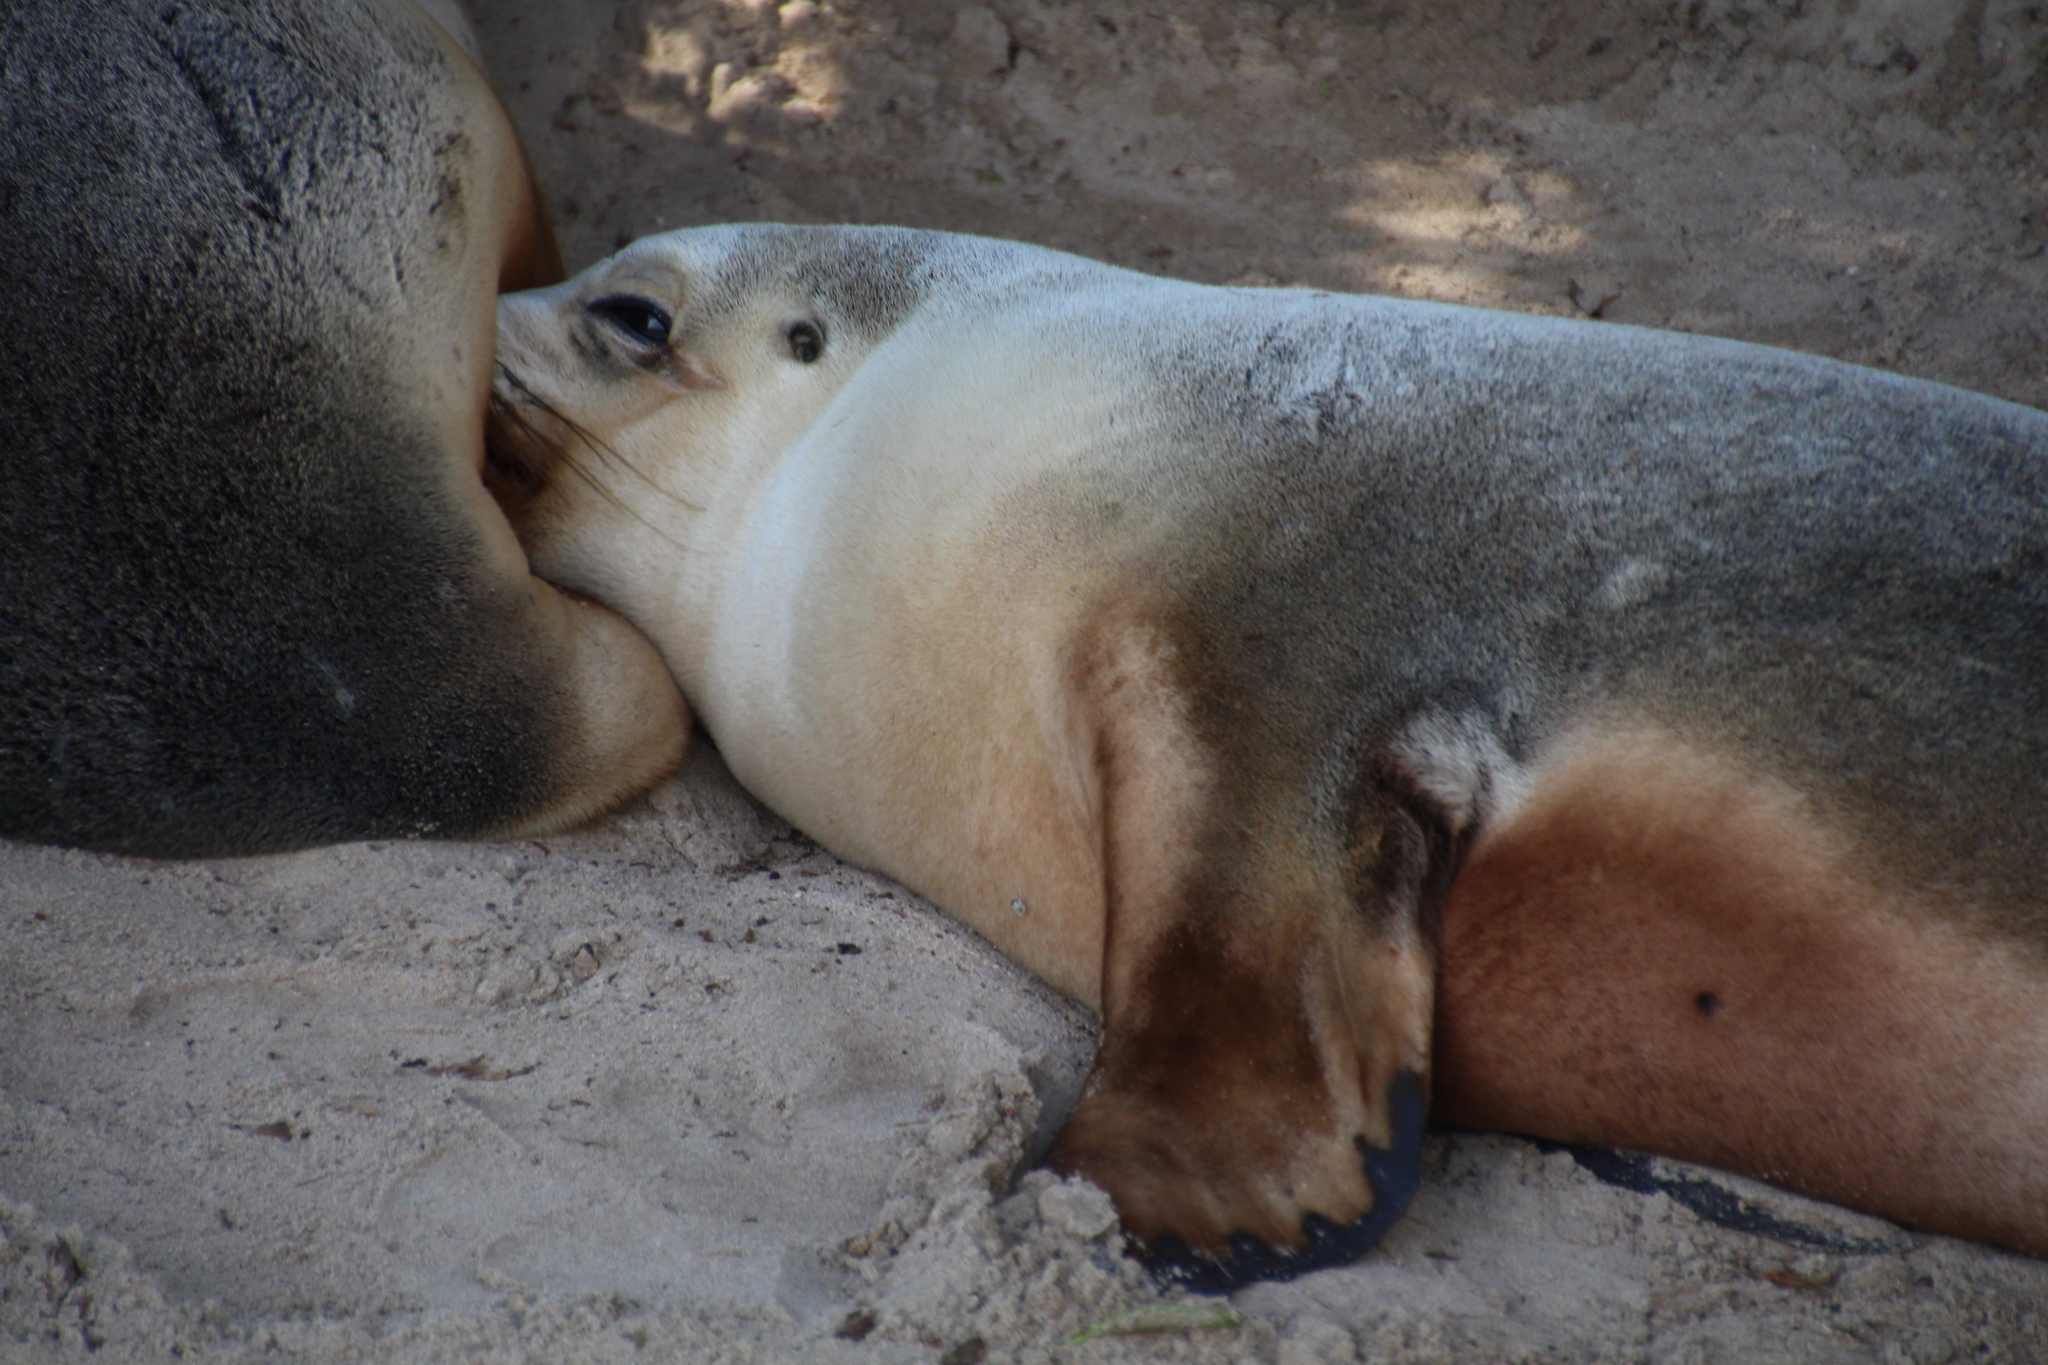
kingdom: Animalia
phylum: Chordata
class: Mammalia
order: Carnivora
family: Otariidae
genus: Neophoca
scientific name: Neophoca cinerea
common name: Australian sea lion
